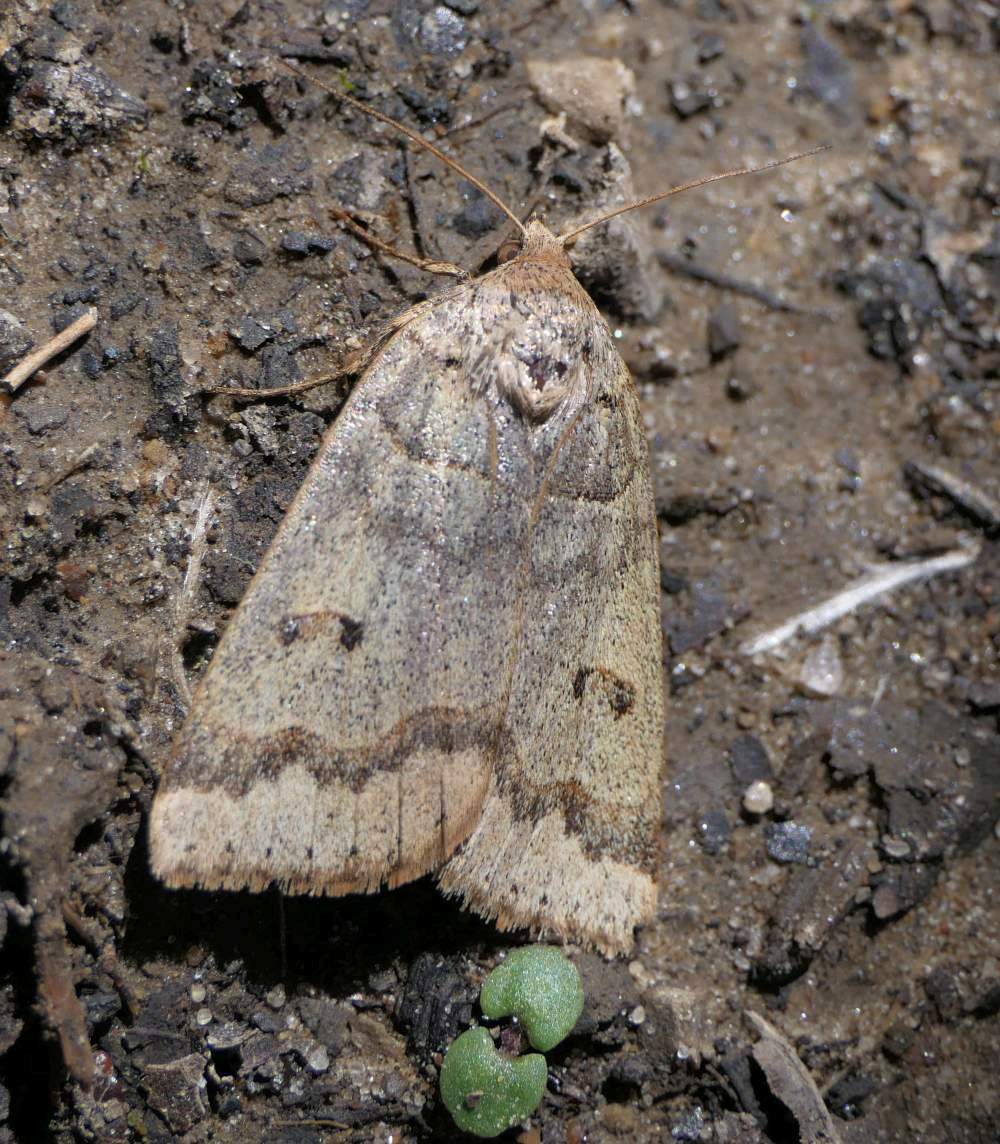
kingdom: Animalia
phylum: Arthropoda
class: Insecta
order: Lepidoptera
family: Erebidae
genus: Phoberia
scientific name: Phoberia atomaris
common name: Common oak moth
